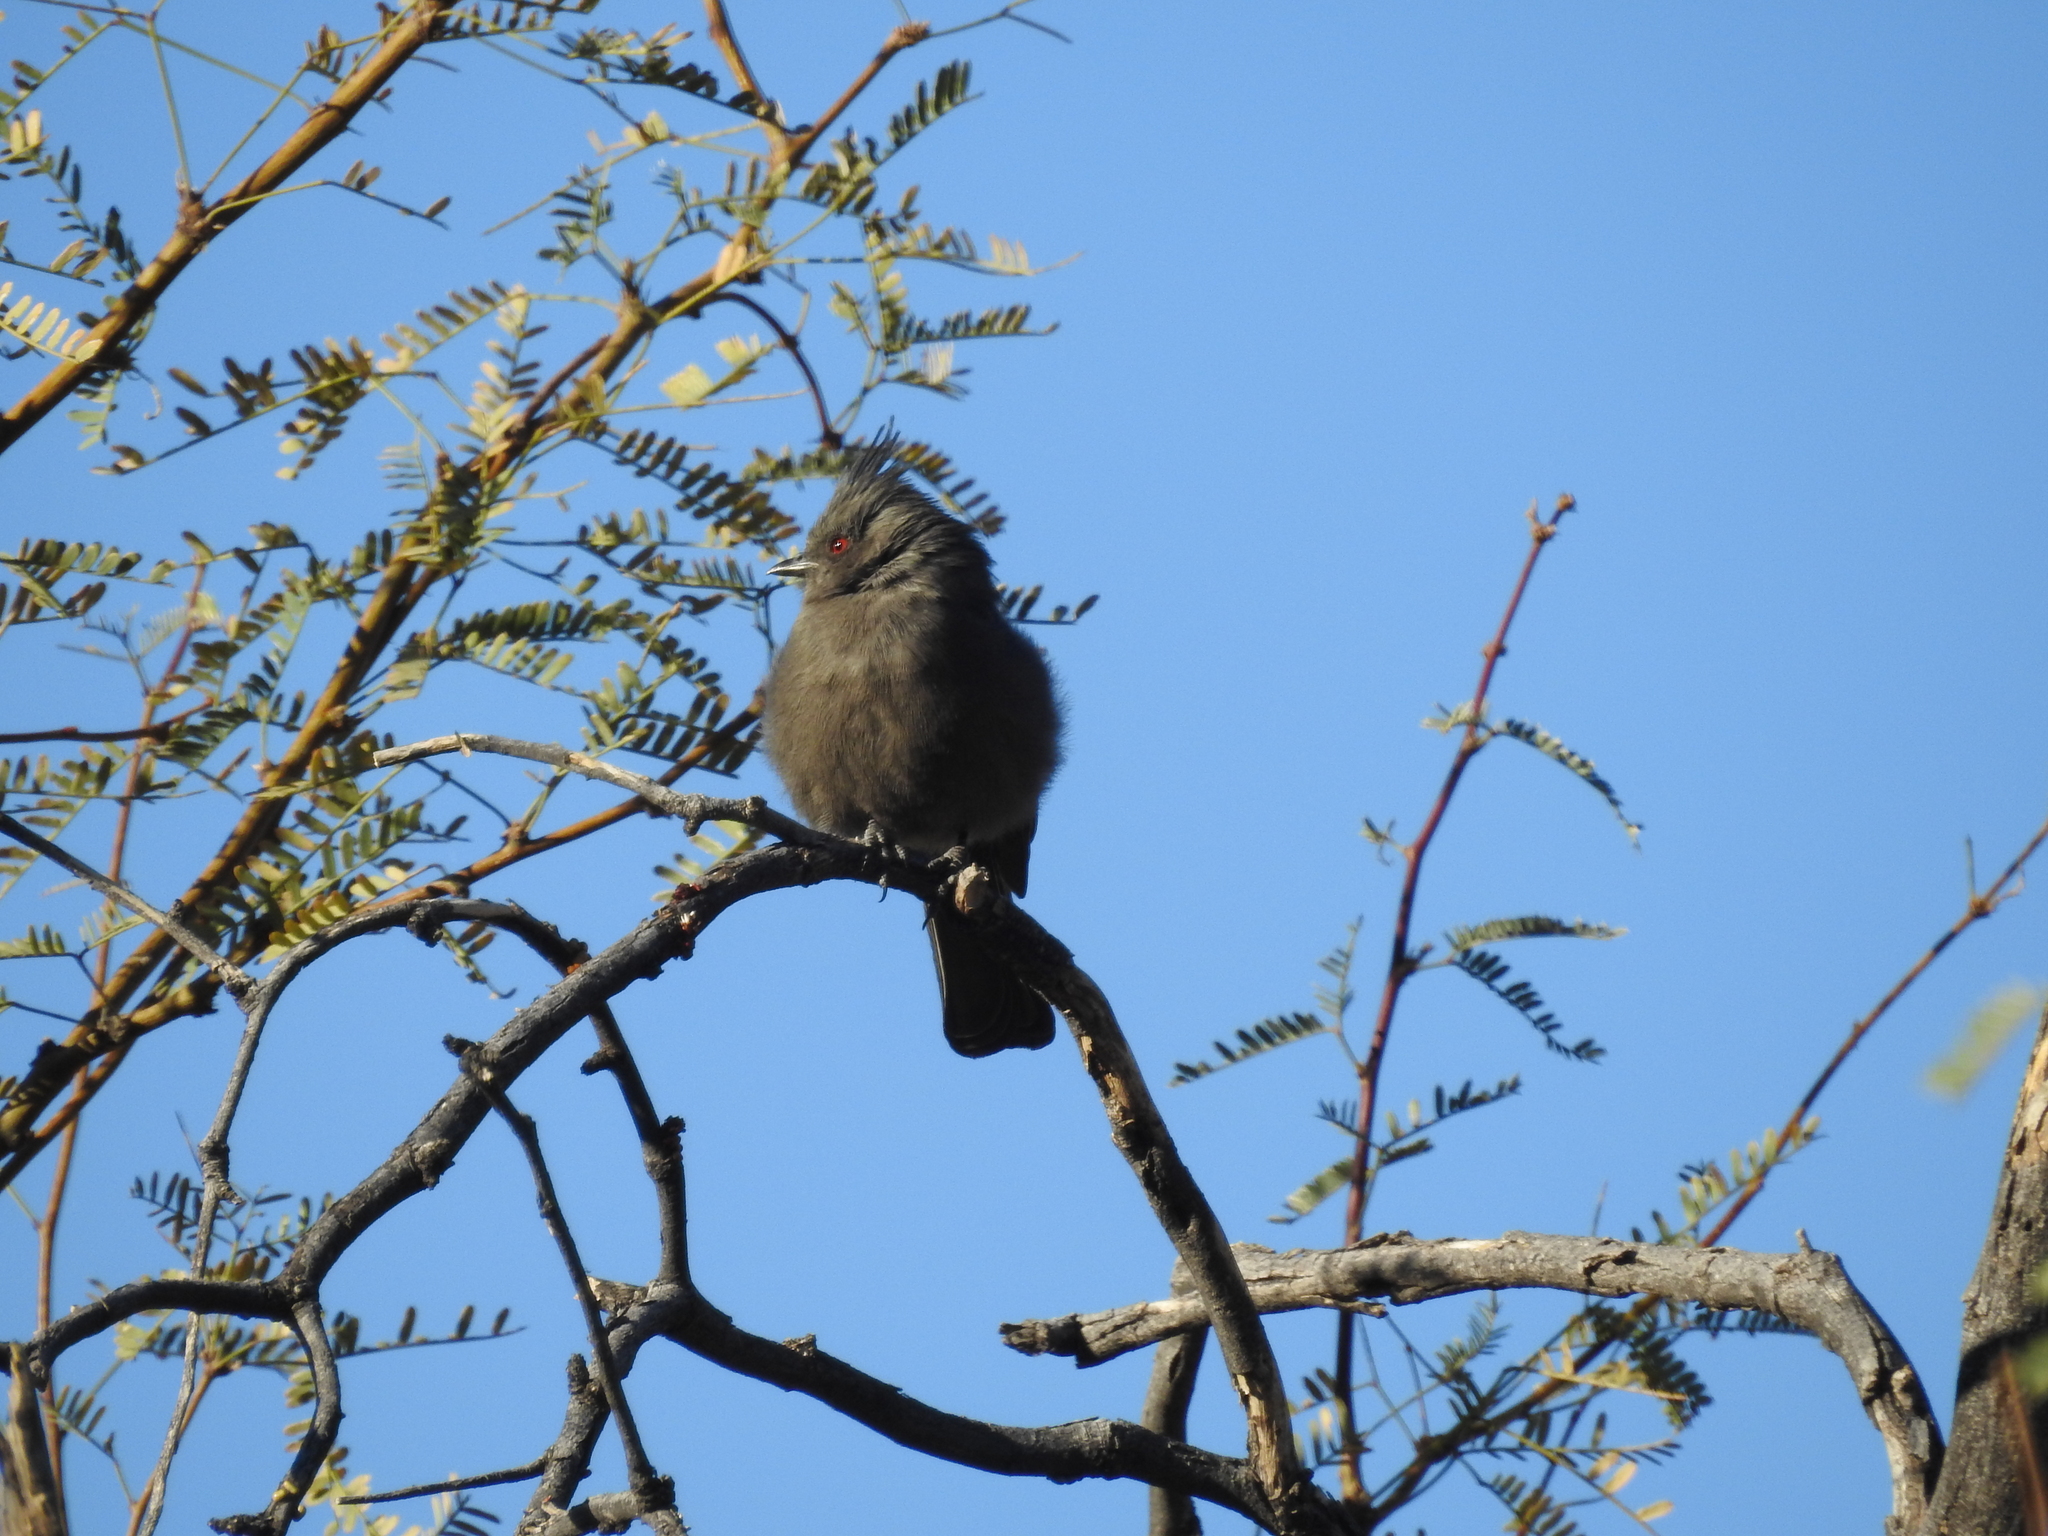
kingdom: Animalia
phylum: Chordata
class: Aves
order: Passeriformes
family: Ptilogonatidae
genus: Phainopepla
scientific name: Phainopepla nitens
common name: Phainopepla
